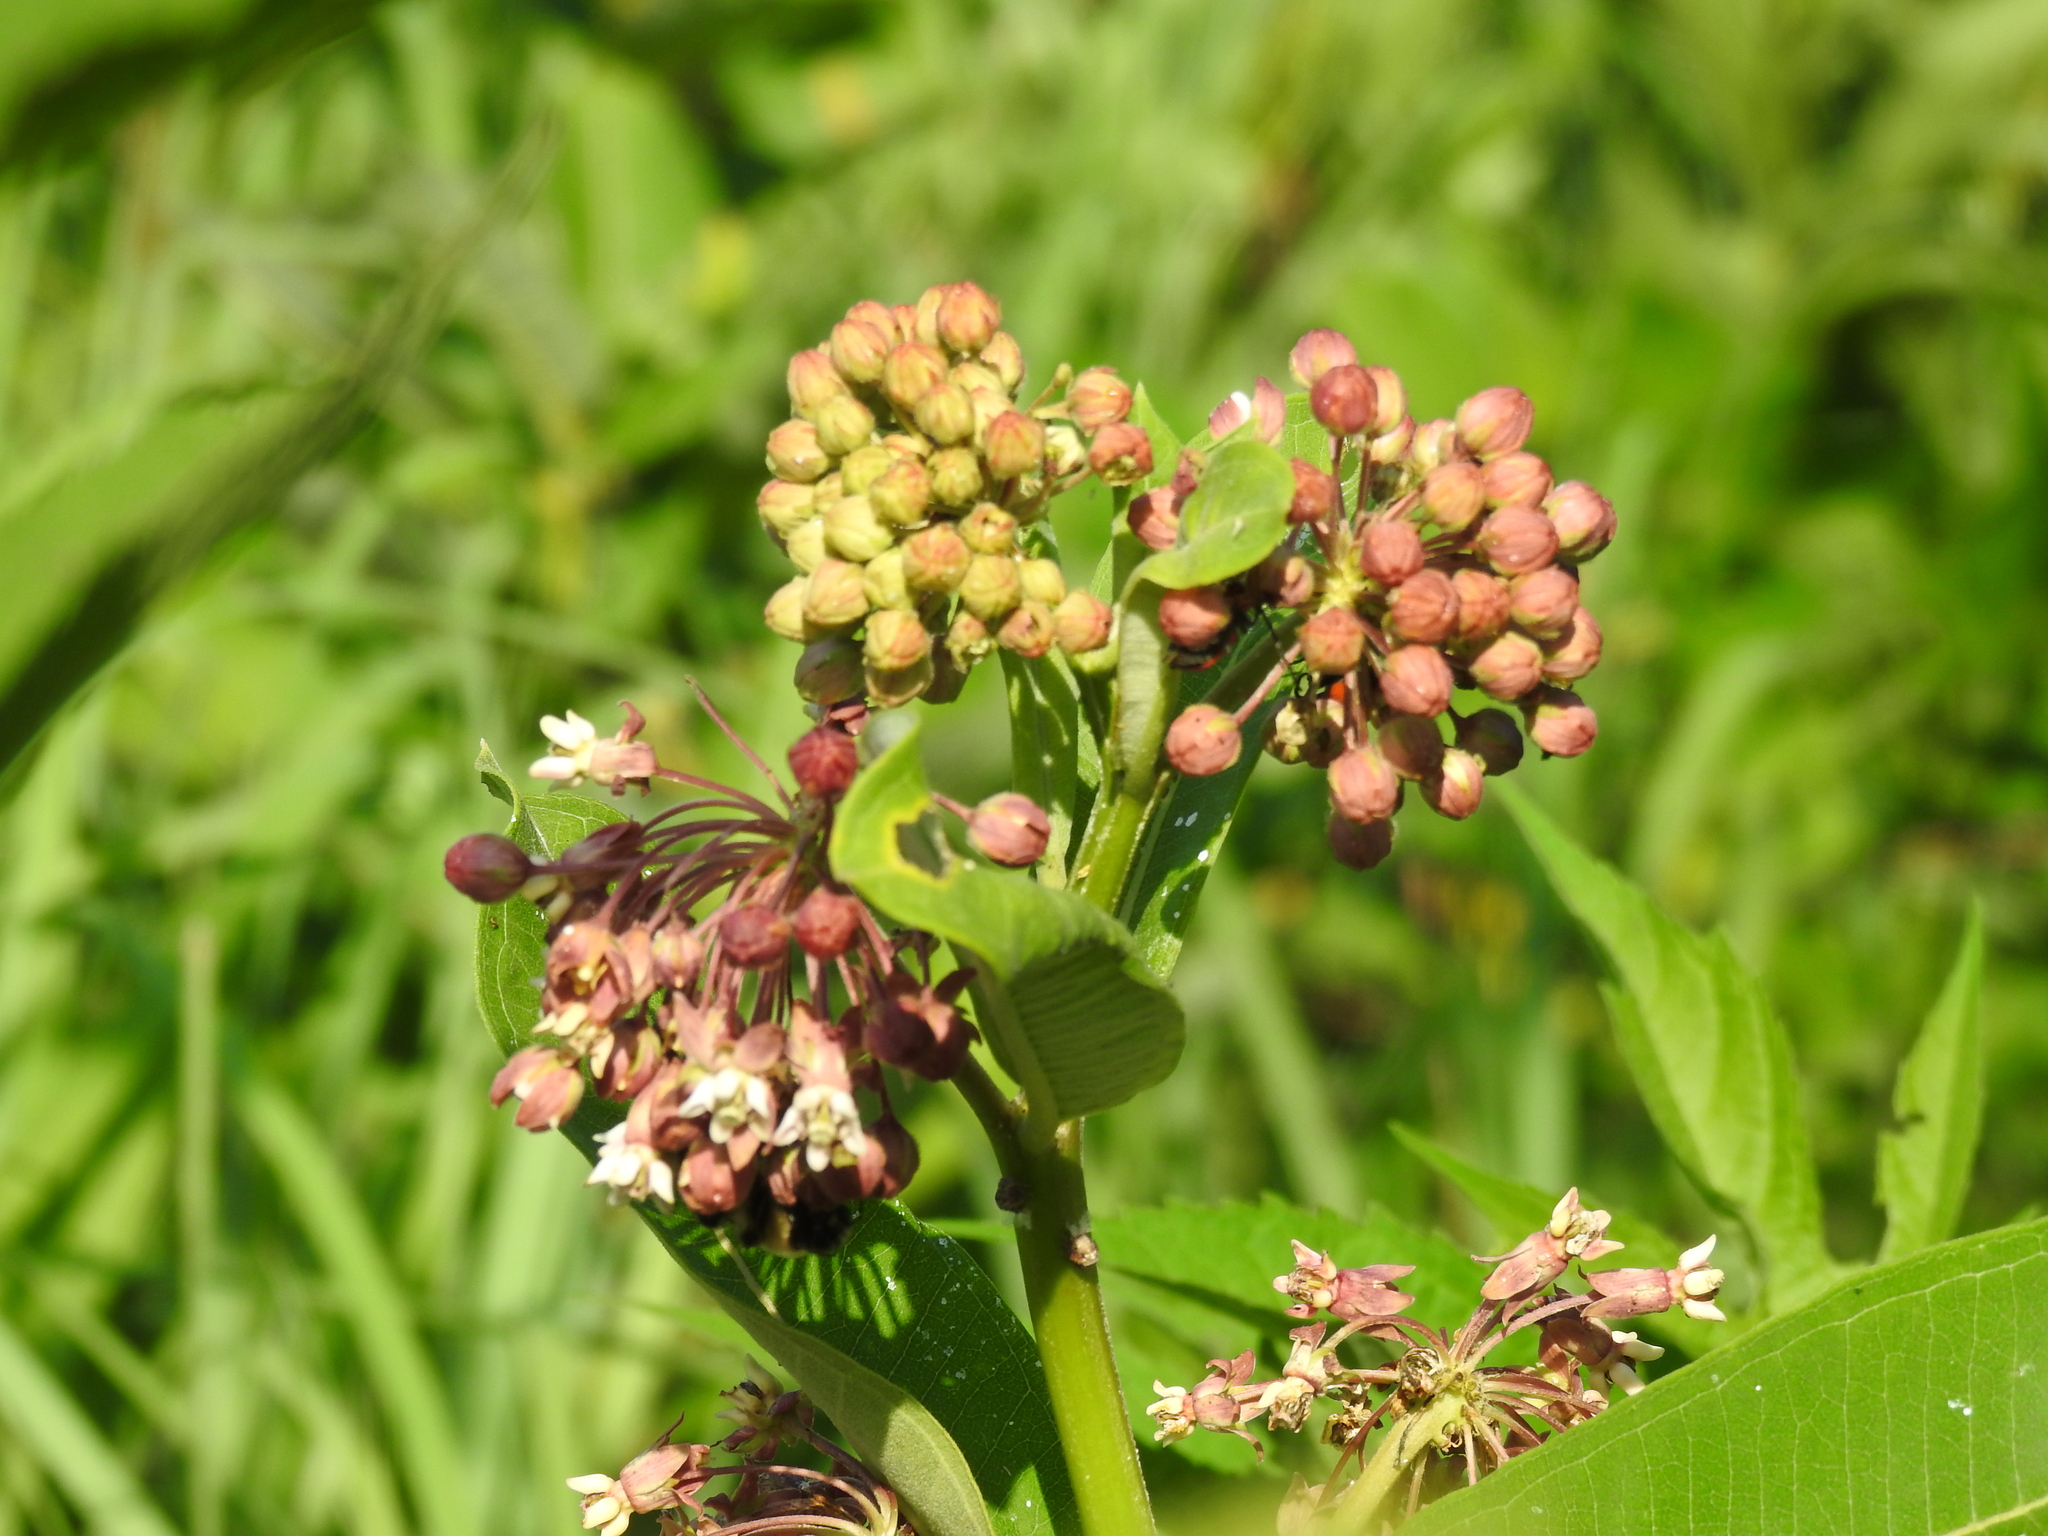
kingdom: Plantae
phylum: Tracheophyta
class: Magnoliopsida
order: Gentianales
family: Apocynaceae
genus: Asclepias
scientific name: Asclepias syriaca
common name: Common milkweed
